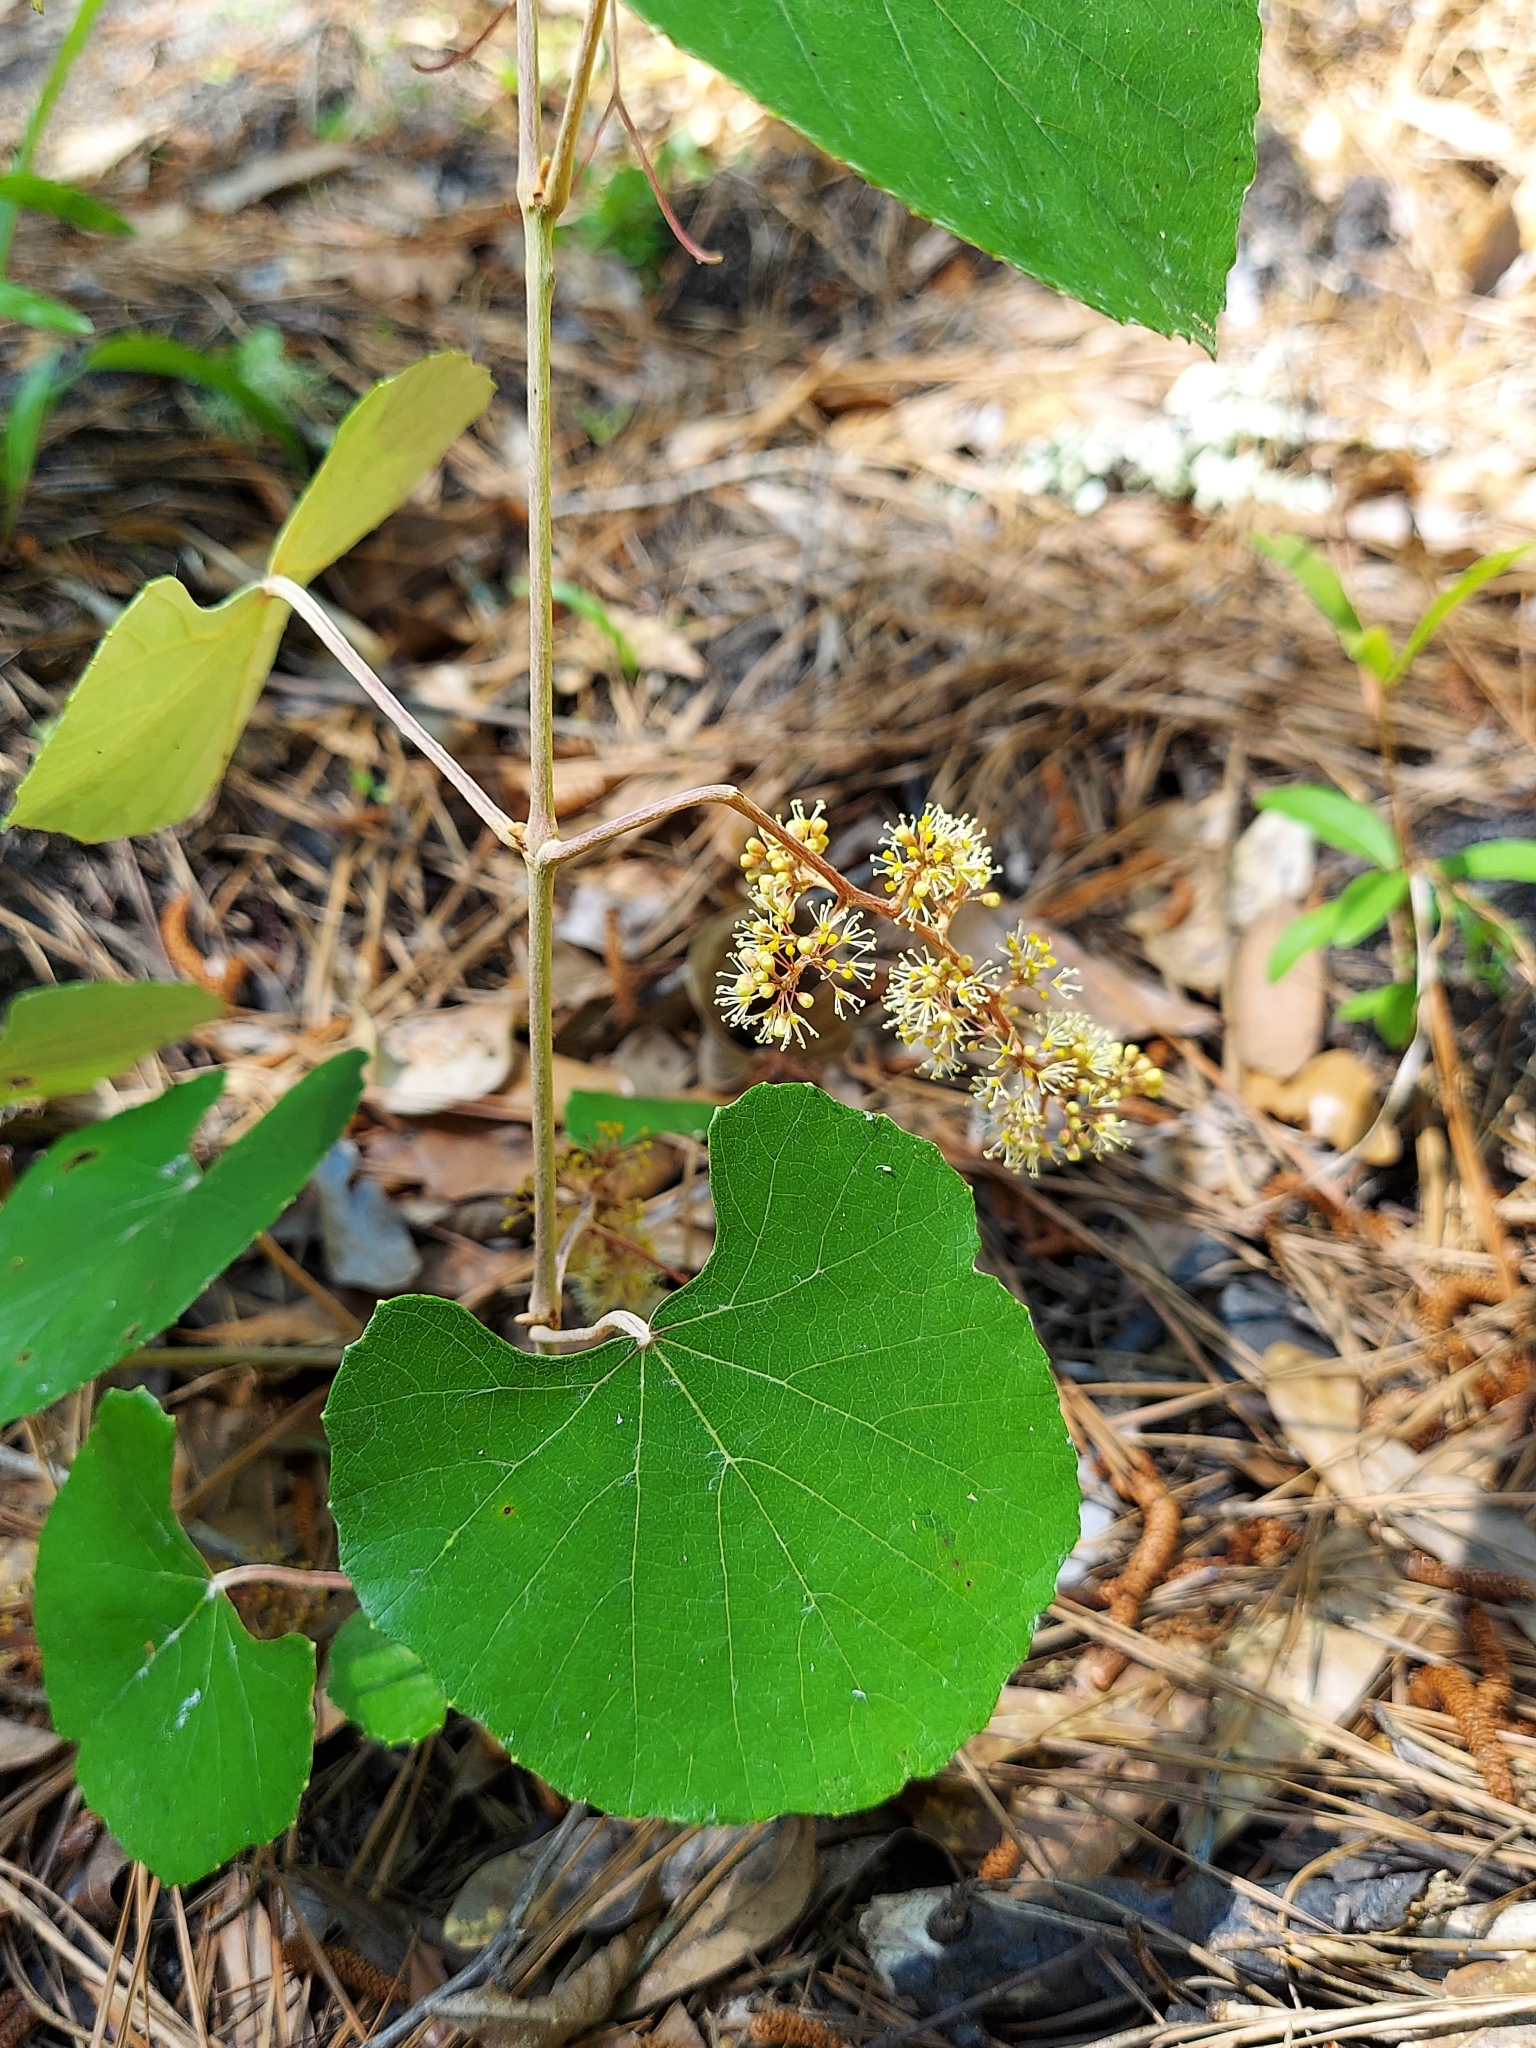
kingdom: Plantae
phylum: Tracheophyta
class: Magnoliopsida
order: Vitales
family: Vitaceae
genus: Vitis
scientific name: Vitis shuttleworthii
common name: Caloosa grape
